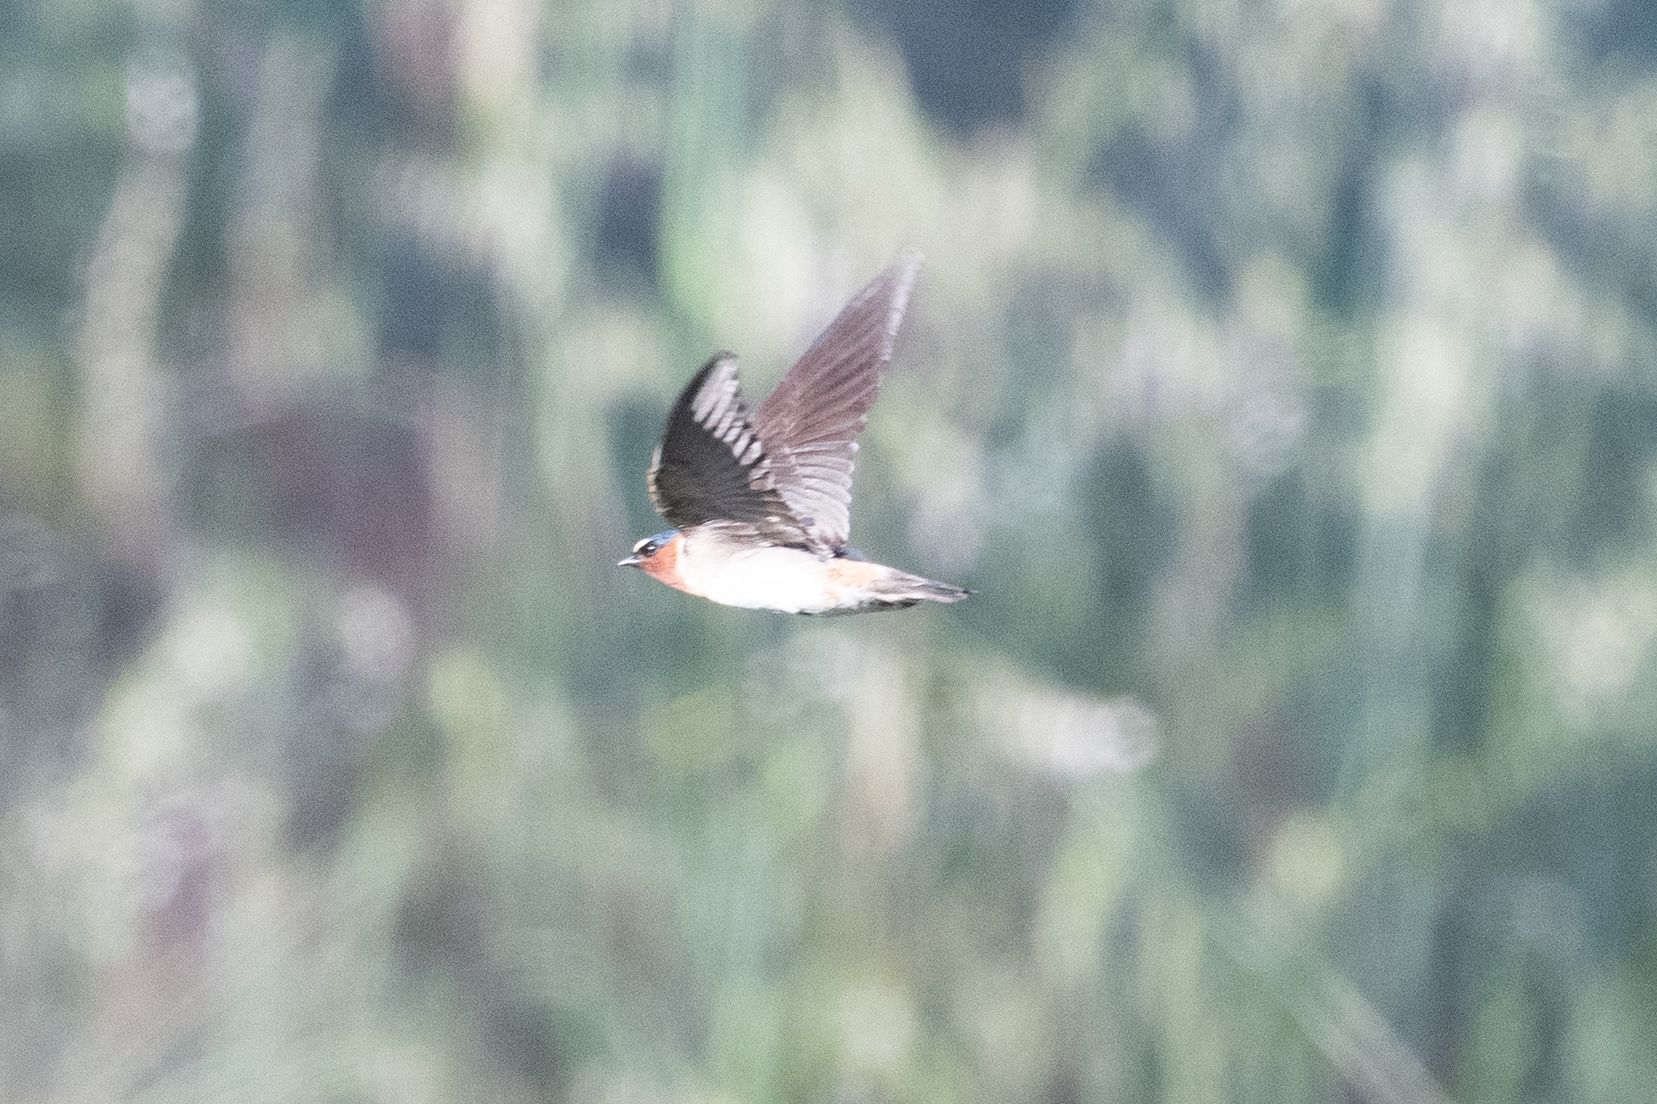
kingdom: Animalia
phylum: Chordata
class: Aves
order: Passeriformes
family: Hirundinidae
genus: Petrochelidon
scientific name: Petrochelidon pyrrhonota
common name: American cliff swallow
